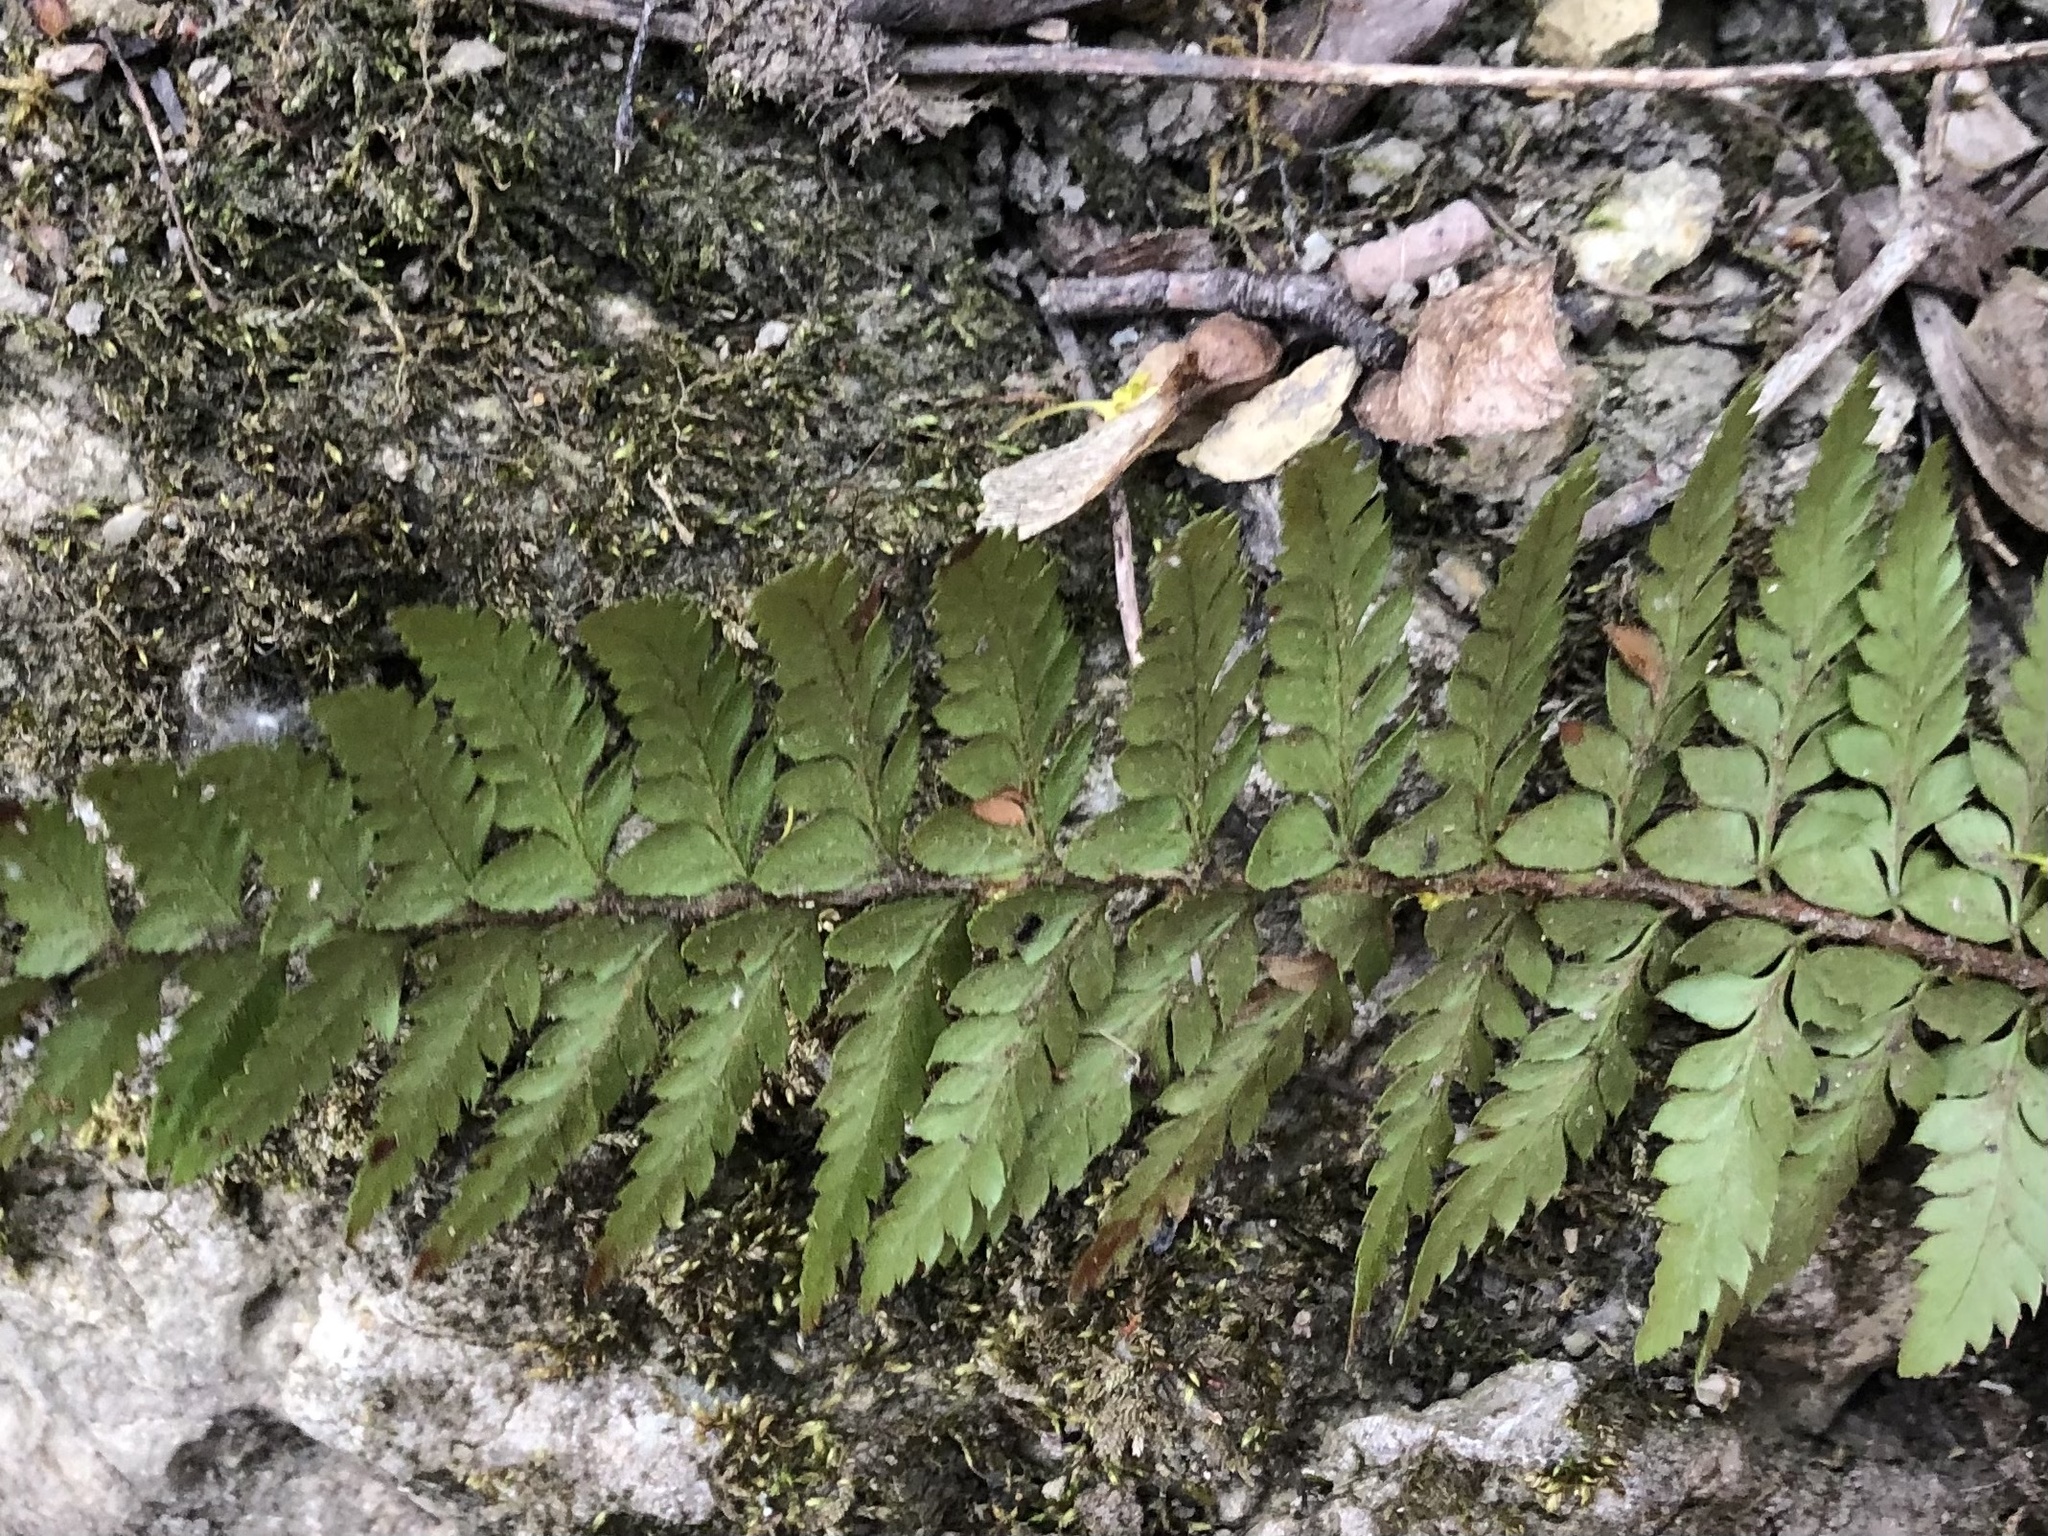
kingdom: Plantae
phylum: Tracheophyta
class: Polypodiopsida
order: Polypodiales
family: Dryopteridaceae
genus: Polystichum
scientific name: Polystichum aculeatum
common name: Hard shield-fern
